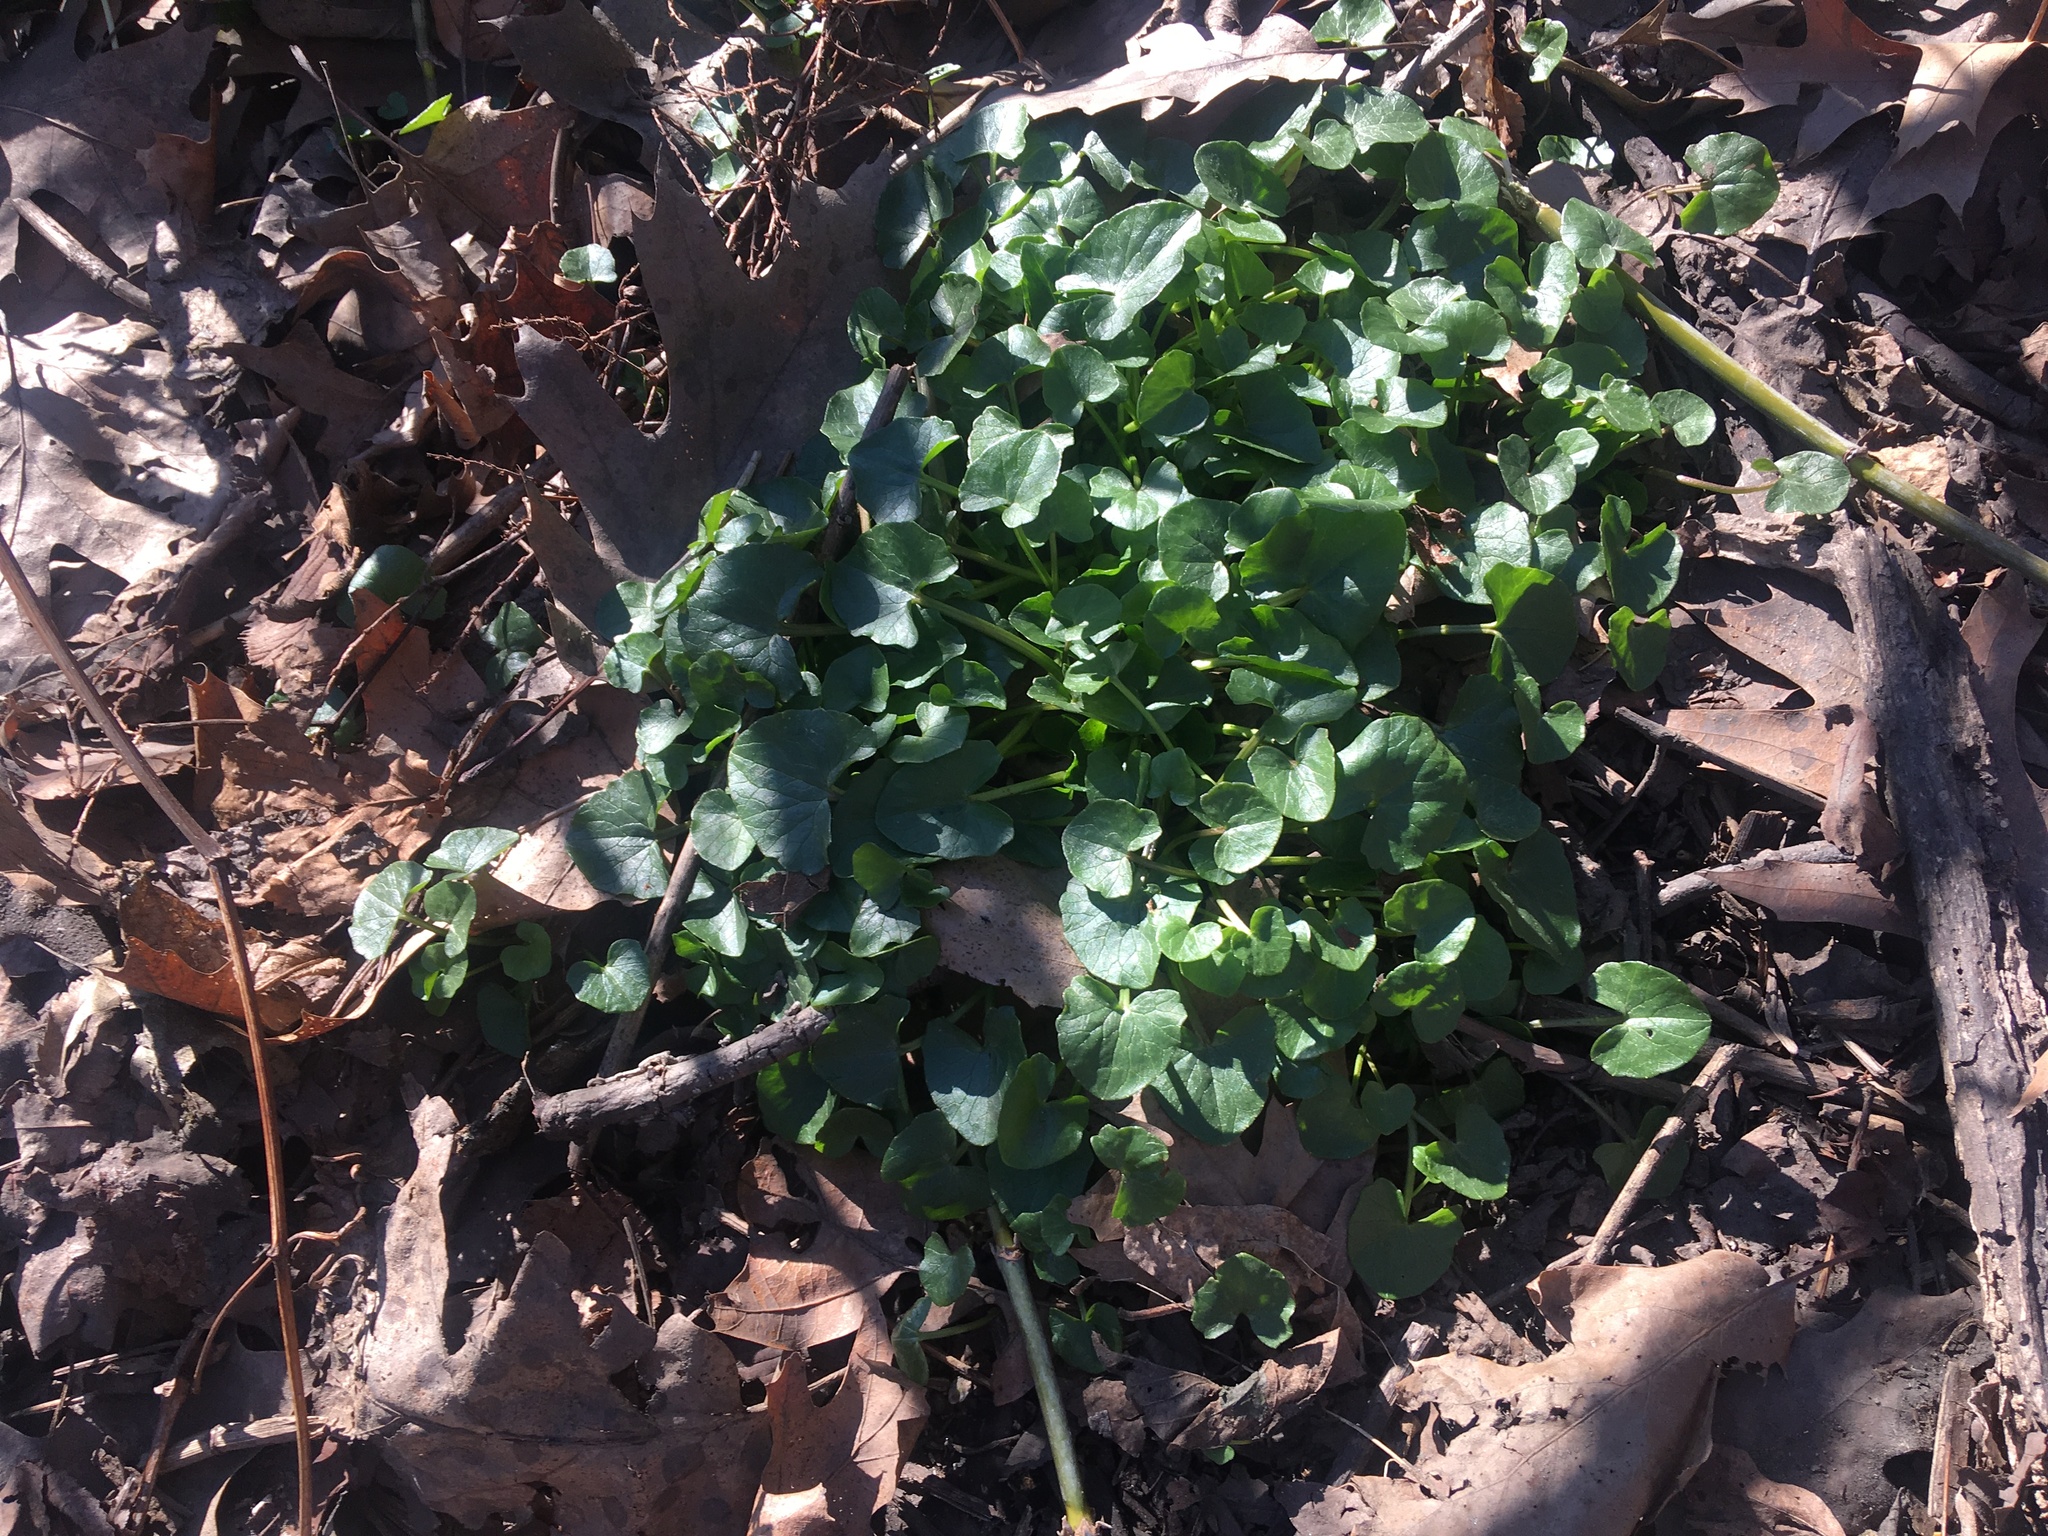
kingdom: Plantae
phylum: Tracheophyta
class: Magnoliopsida
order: Ranunculales
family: Ranunculaceae
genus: Ficaria
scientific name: Ficaria verna
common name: Lesser celandine
